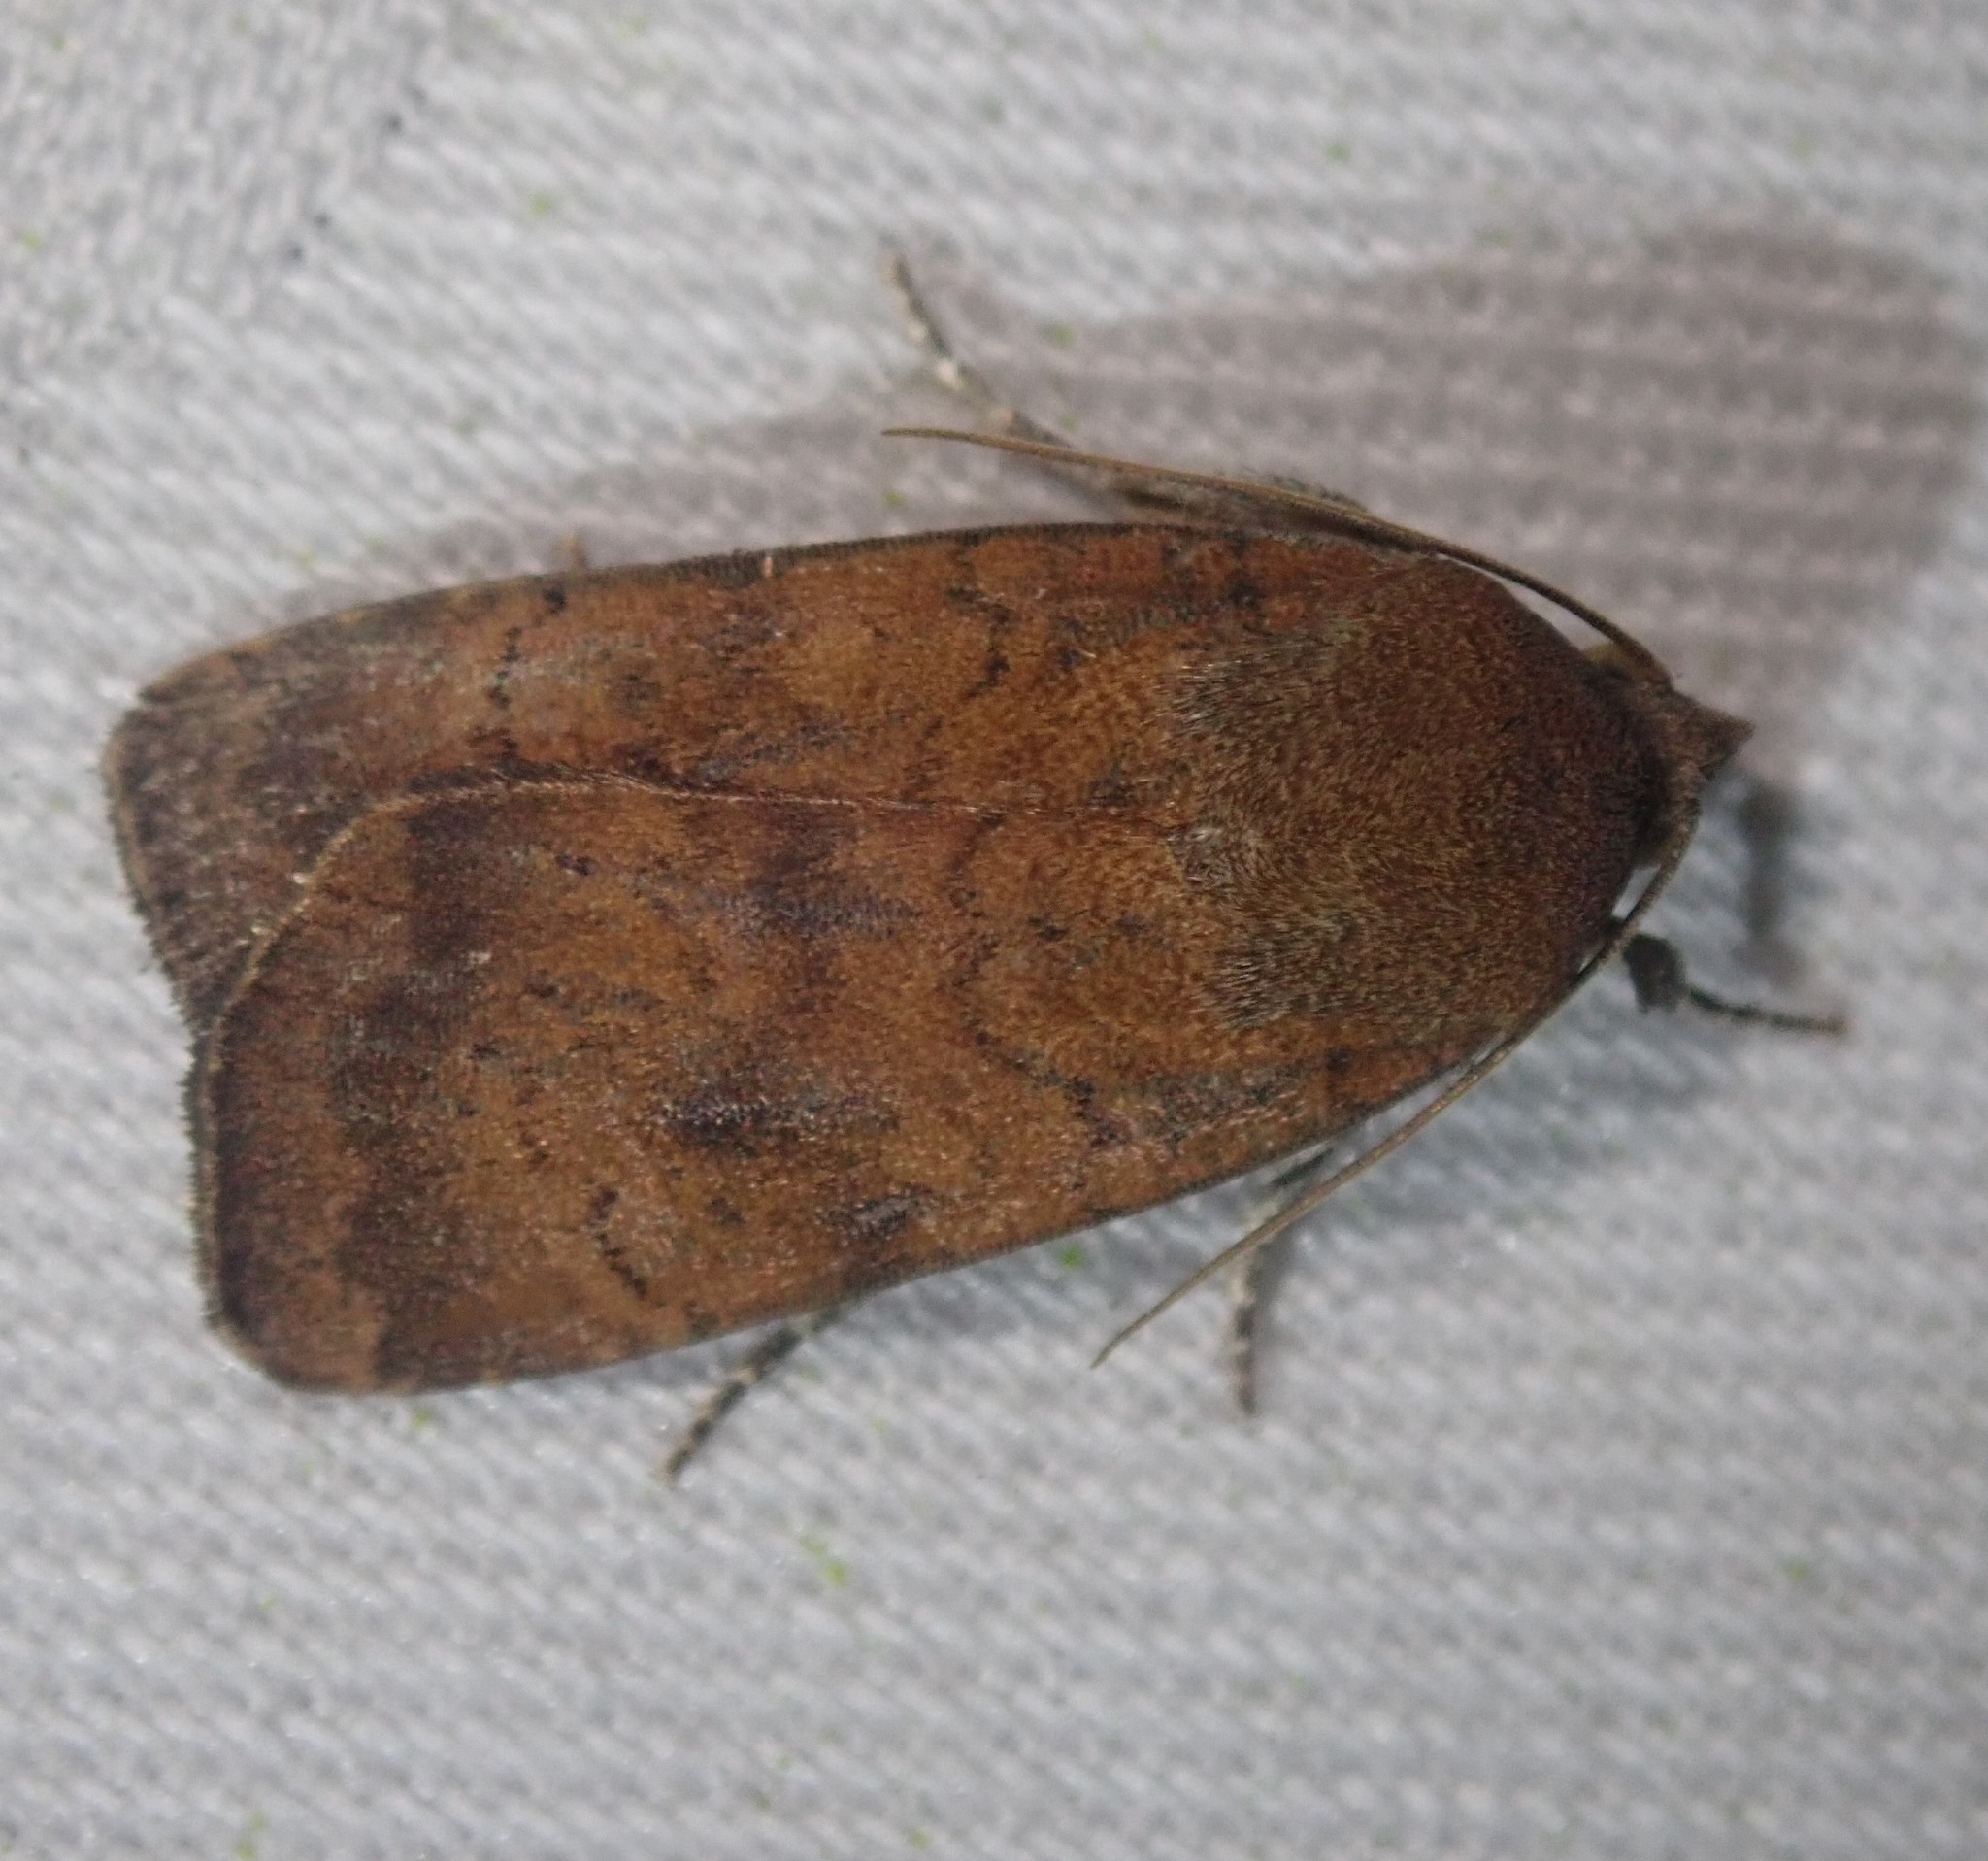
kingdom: Animalia
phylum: Arthropoda
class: Insecta
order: Lepidoptera
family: Noctuidae
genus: Noctua
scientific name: Noctua interjecta
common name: Least yellow underwing
